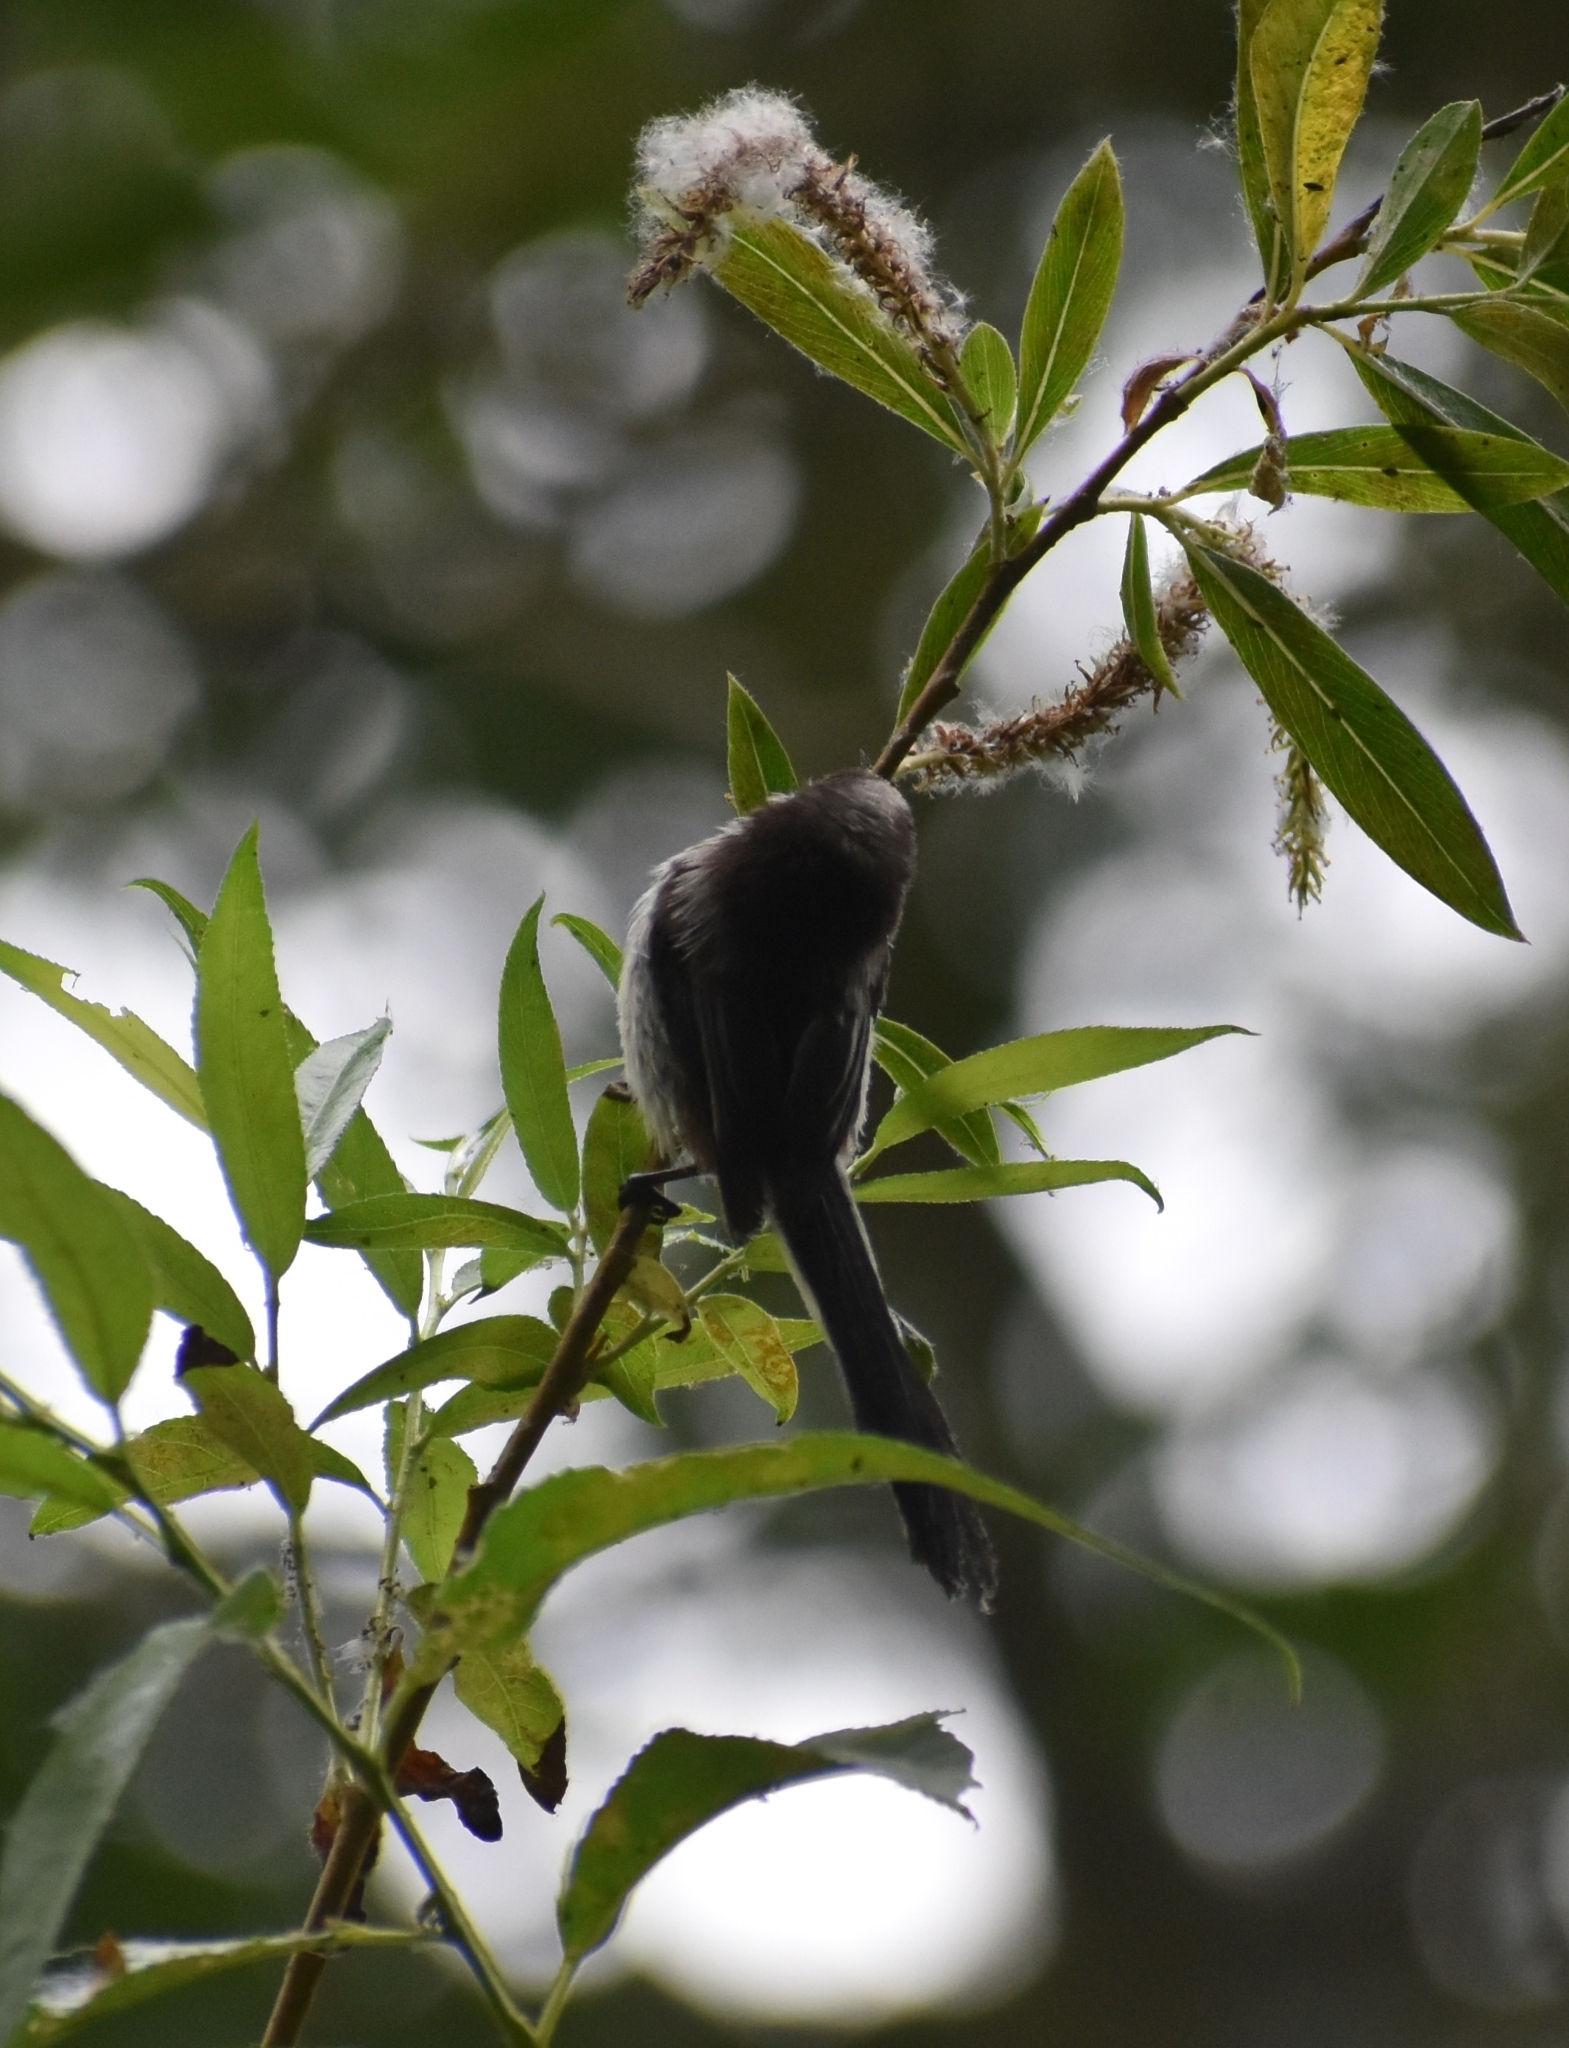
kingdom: Animalia
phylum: Chordata
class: Aves
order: Passeriformes
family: Aegithalidae
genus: Aegithalos
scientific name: Aegithalos caudatus
